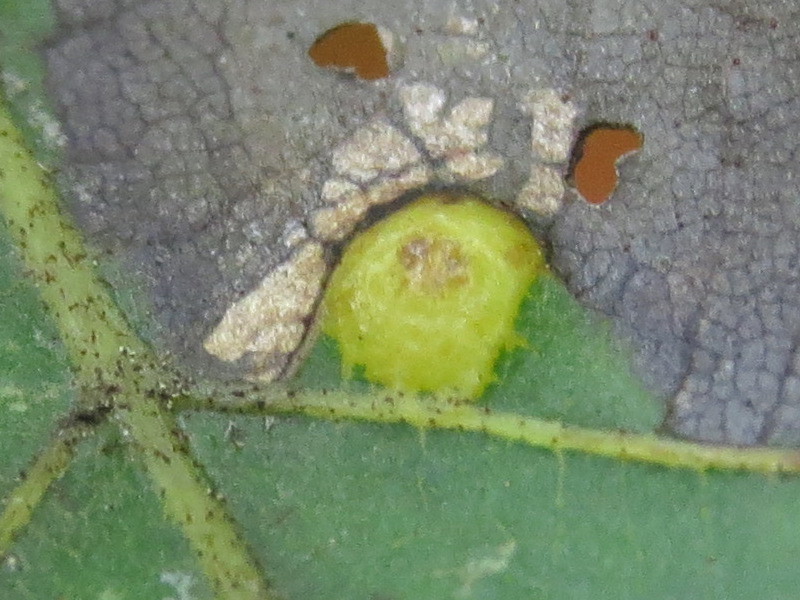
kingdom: Animalia
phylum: Arthropoda
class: Insecta
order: Diptera
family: Cecidomyiidae
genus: Caryomyia
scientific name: Caryomyia biretta
